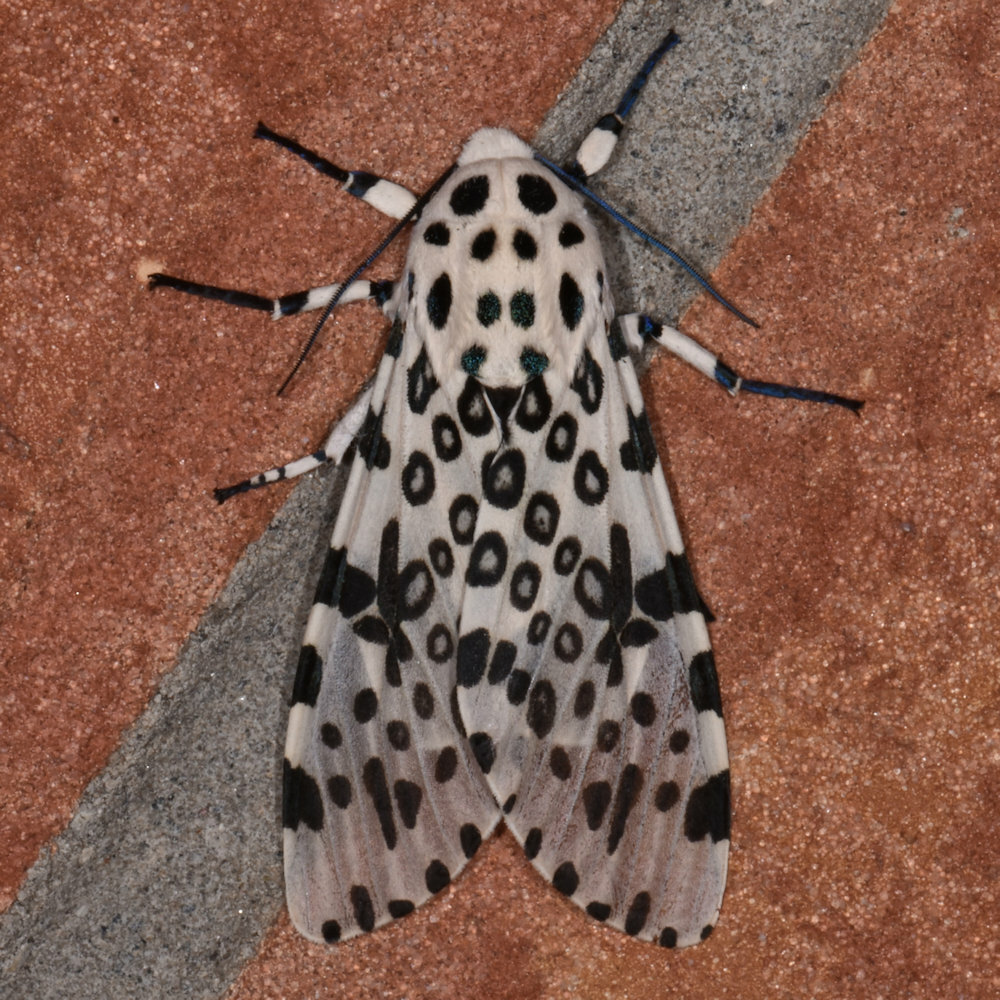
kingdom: Animalia
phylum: Arthropoda
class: Insecta
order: Lepidoptera
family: Erebidae
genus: Hypercompe
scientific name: Hypercompe scribonia
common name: Giant leopard moth
